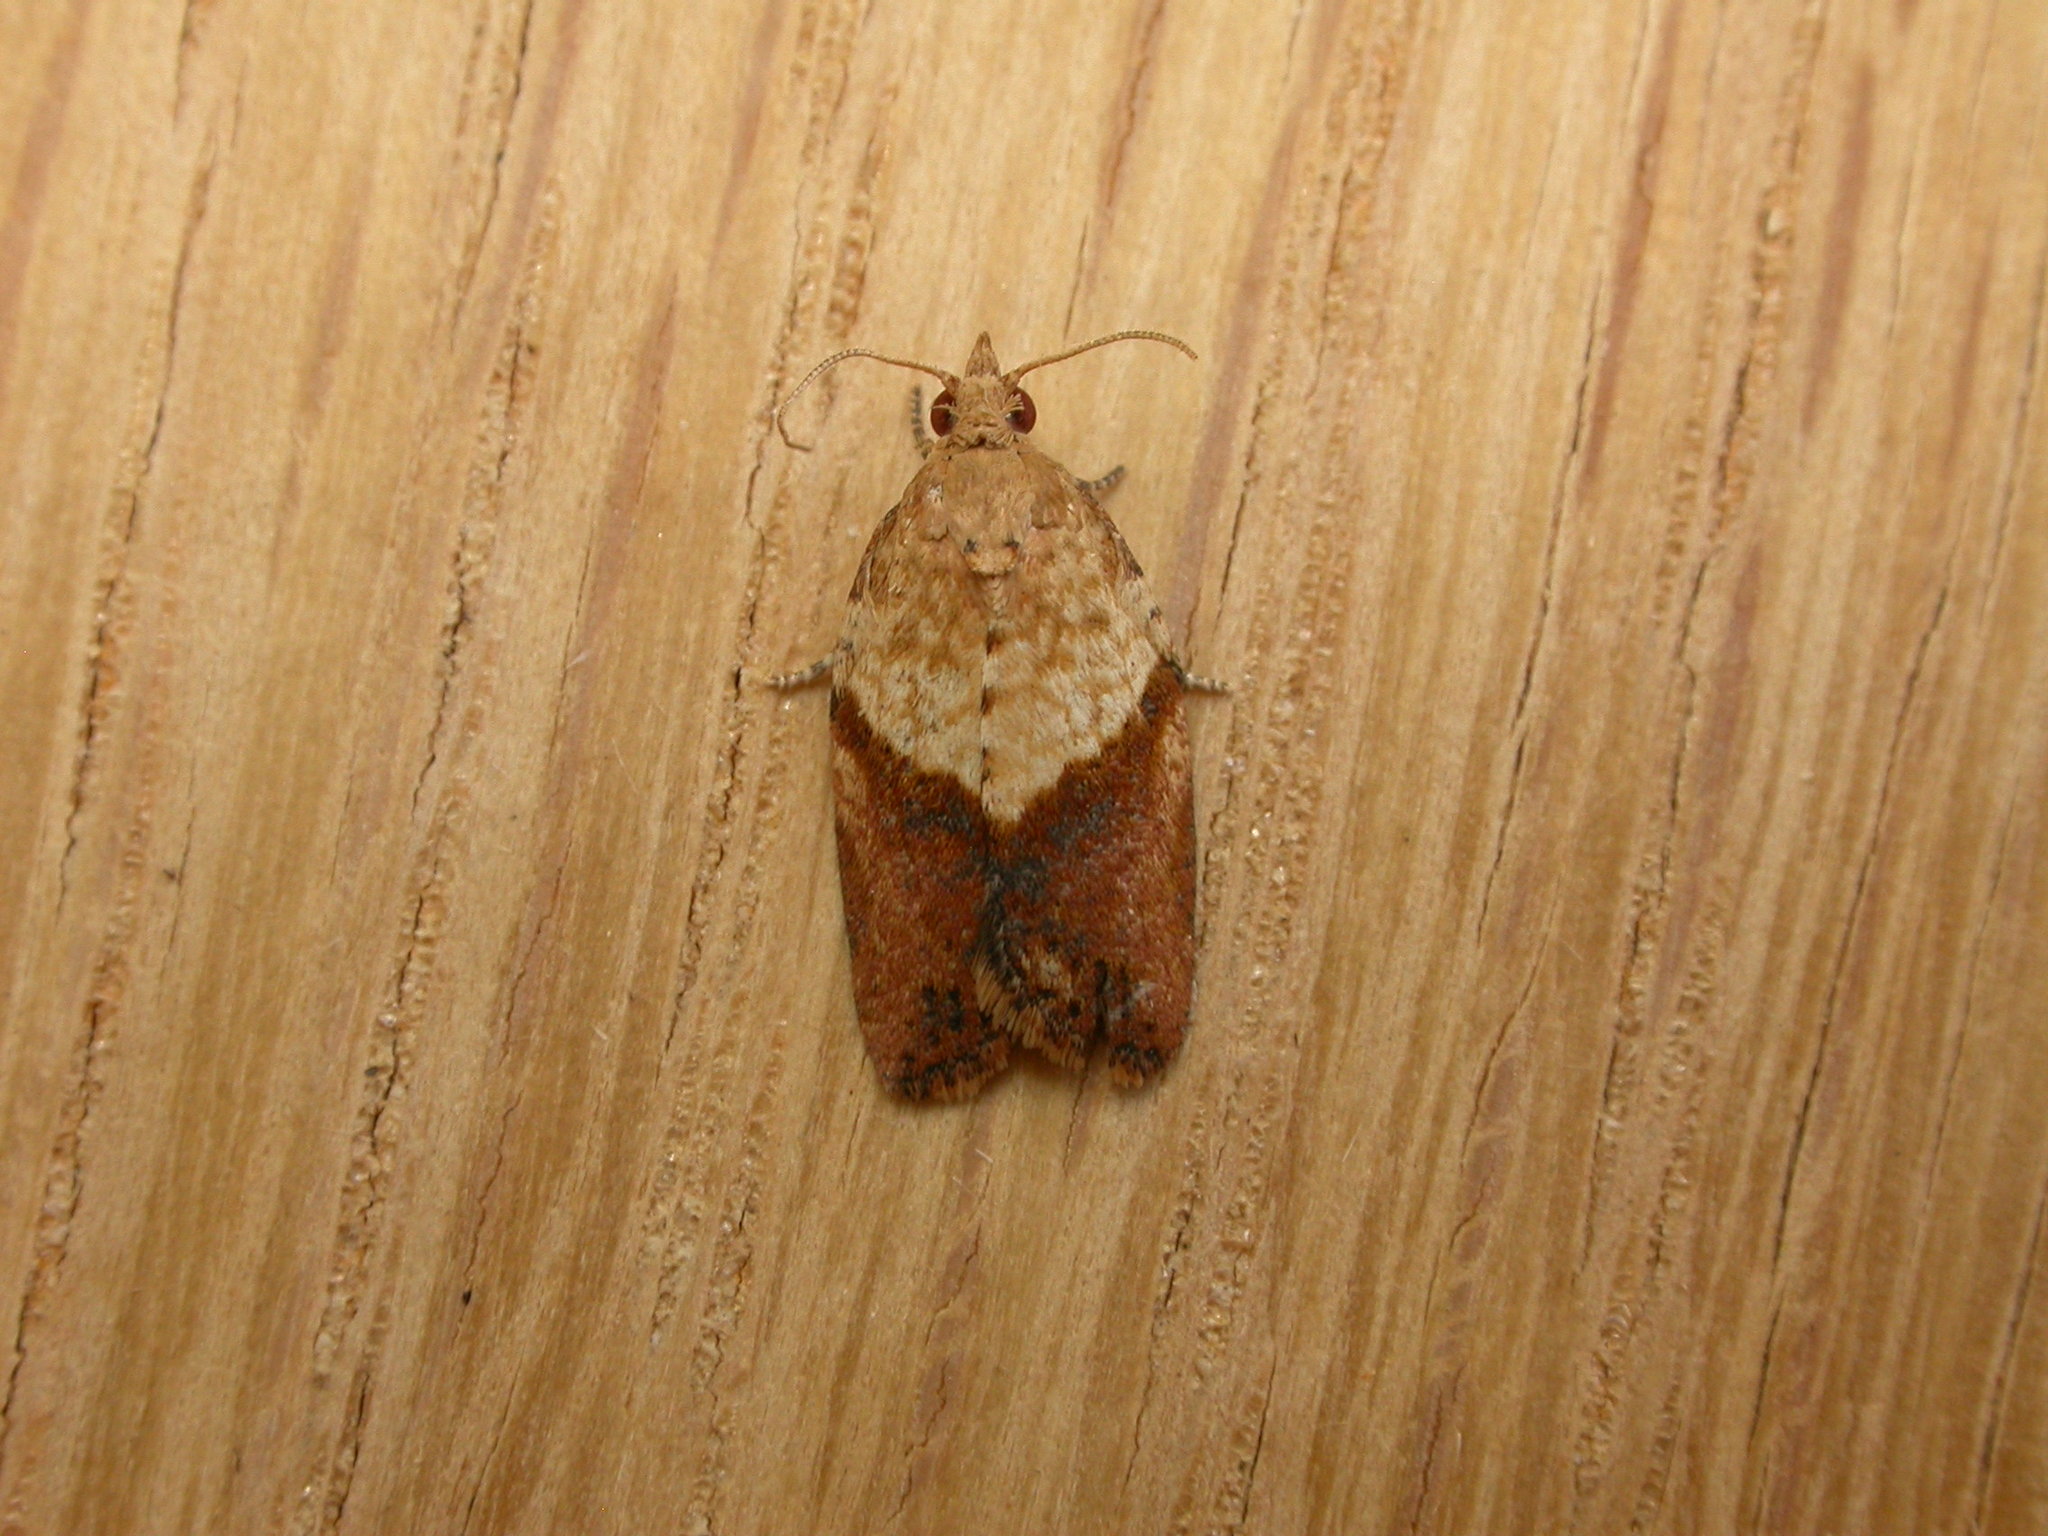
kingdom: Animalia
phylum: Arthropoda
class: Insecta
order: Lepidoptera
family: Tortricidae
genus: Epiphyas
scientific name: Epiphyas postvittana
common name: Light brown apple moth
